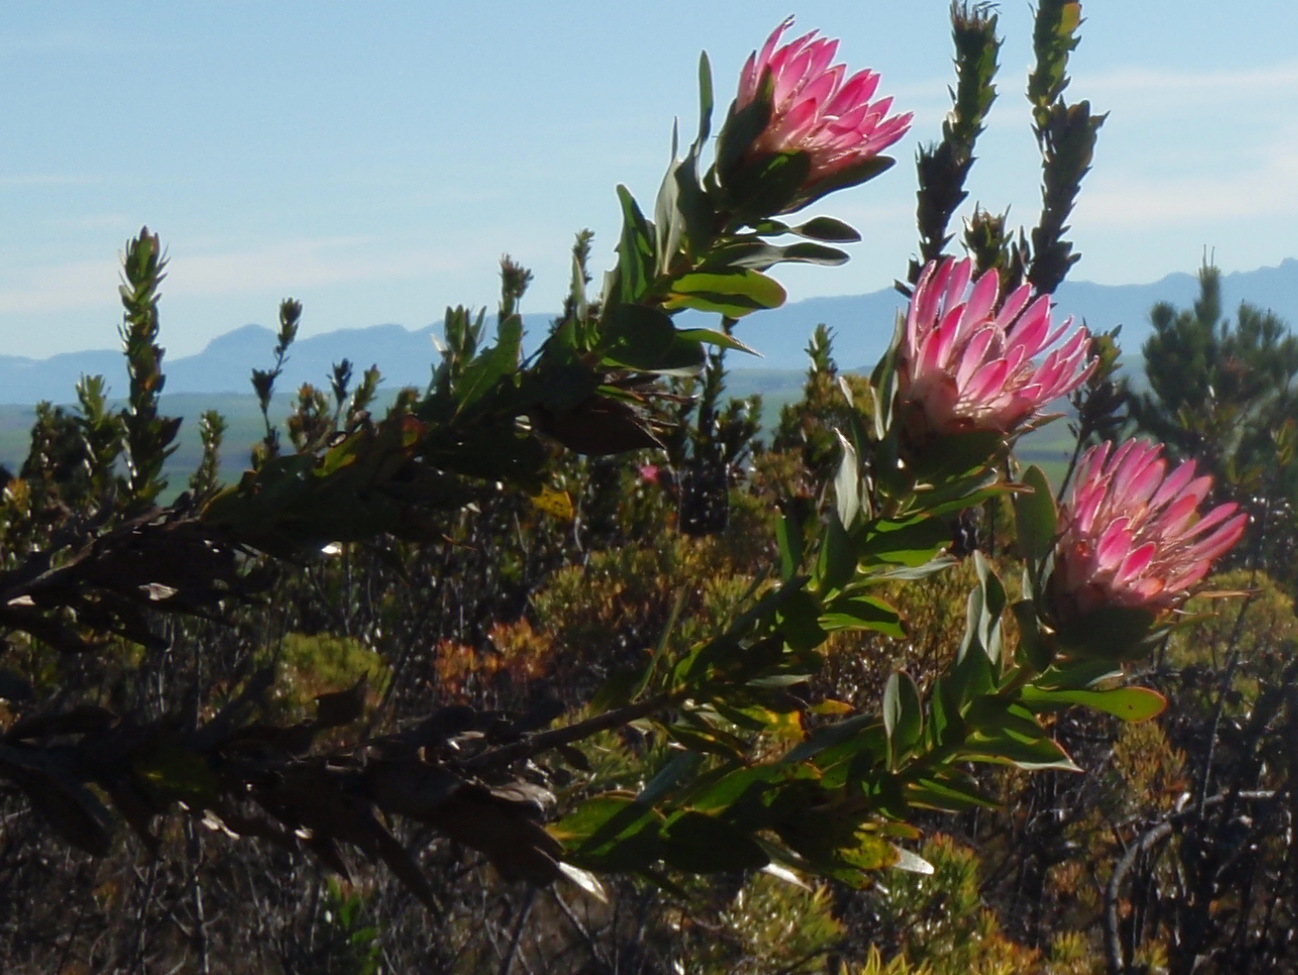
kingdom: Plantae
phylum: Tracheophyta
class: Magnoliopsida
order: Proteales
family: Proteaceae
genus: Protea
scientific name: Protea compacta
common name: Bot river protea
